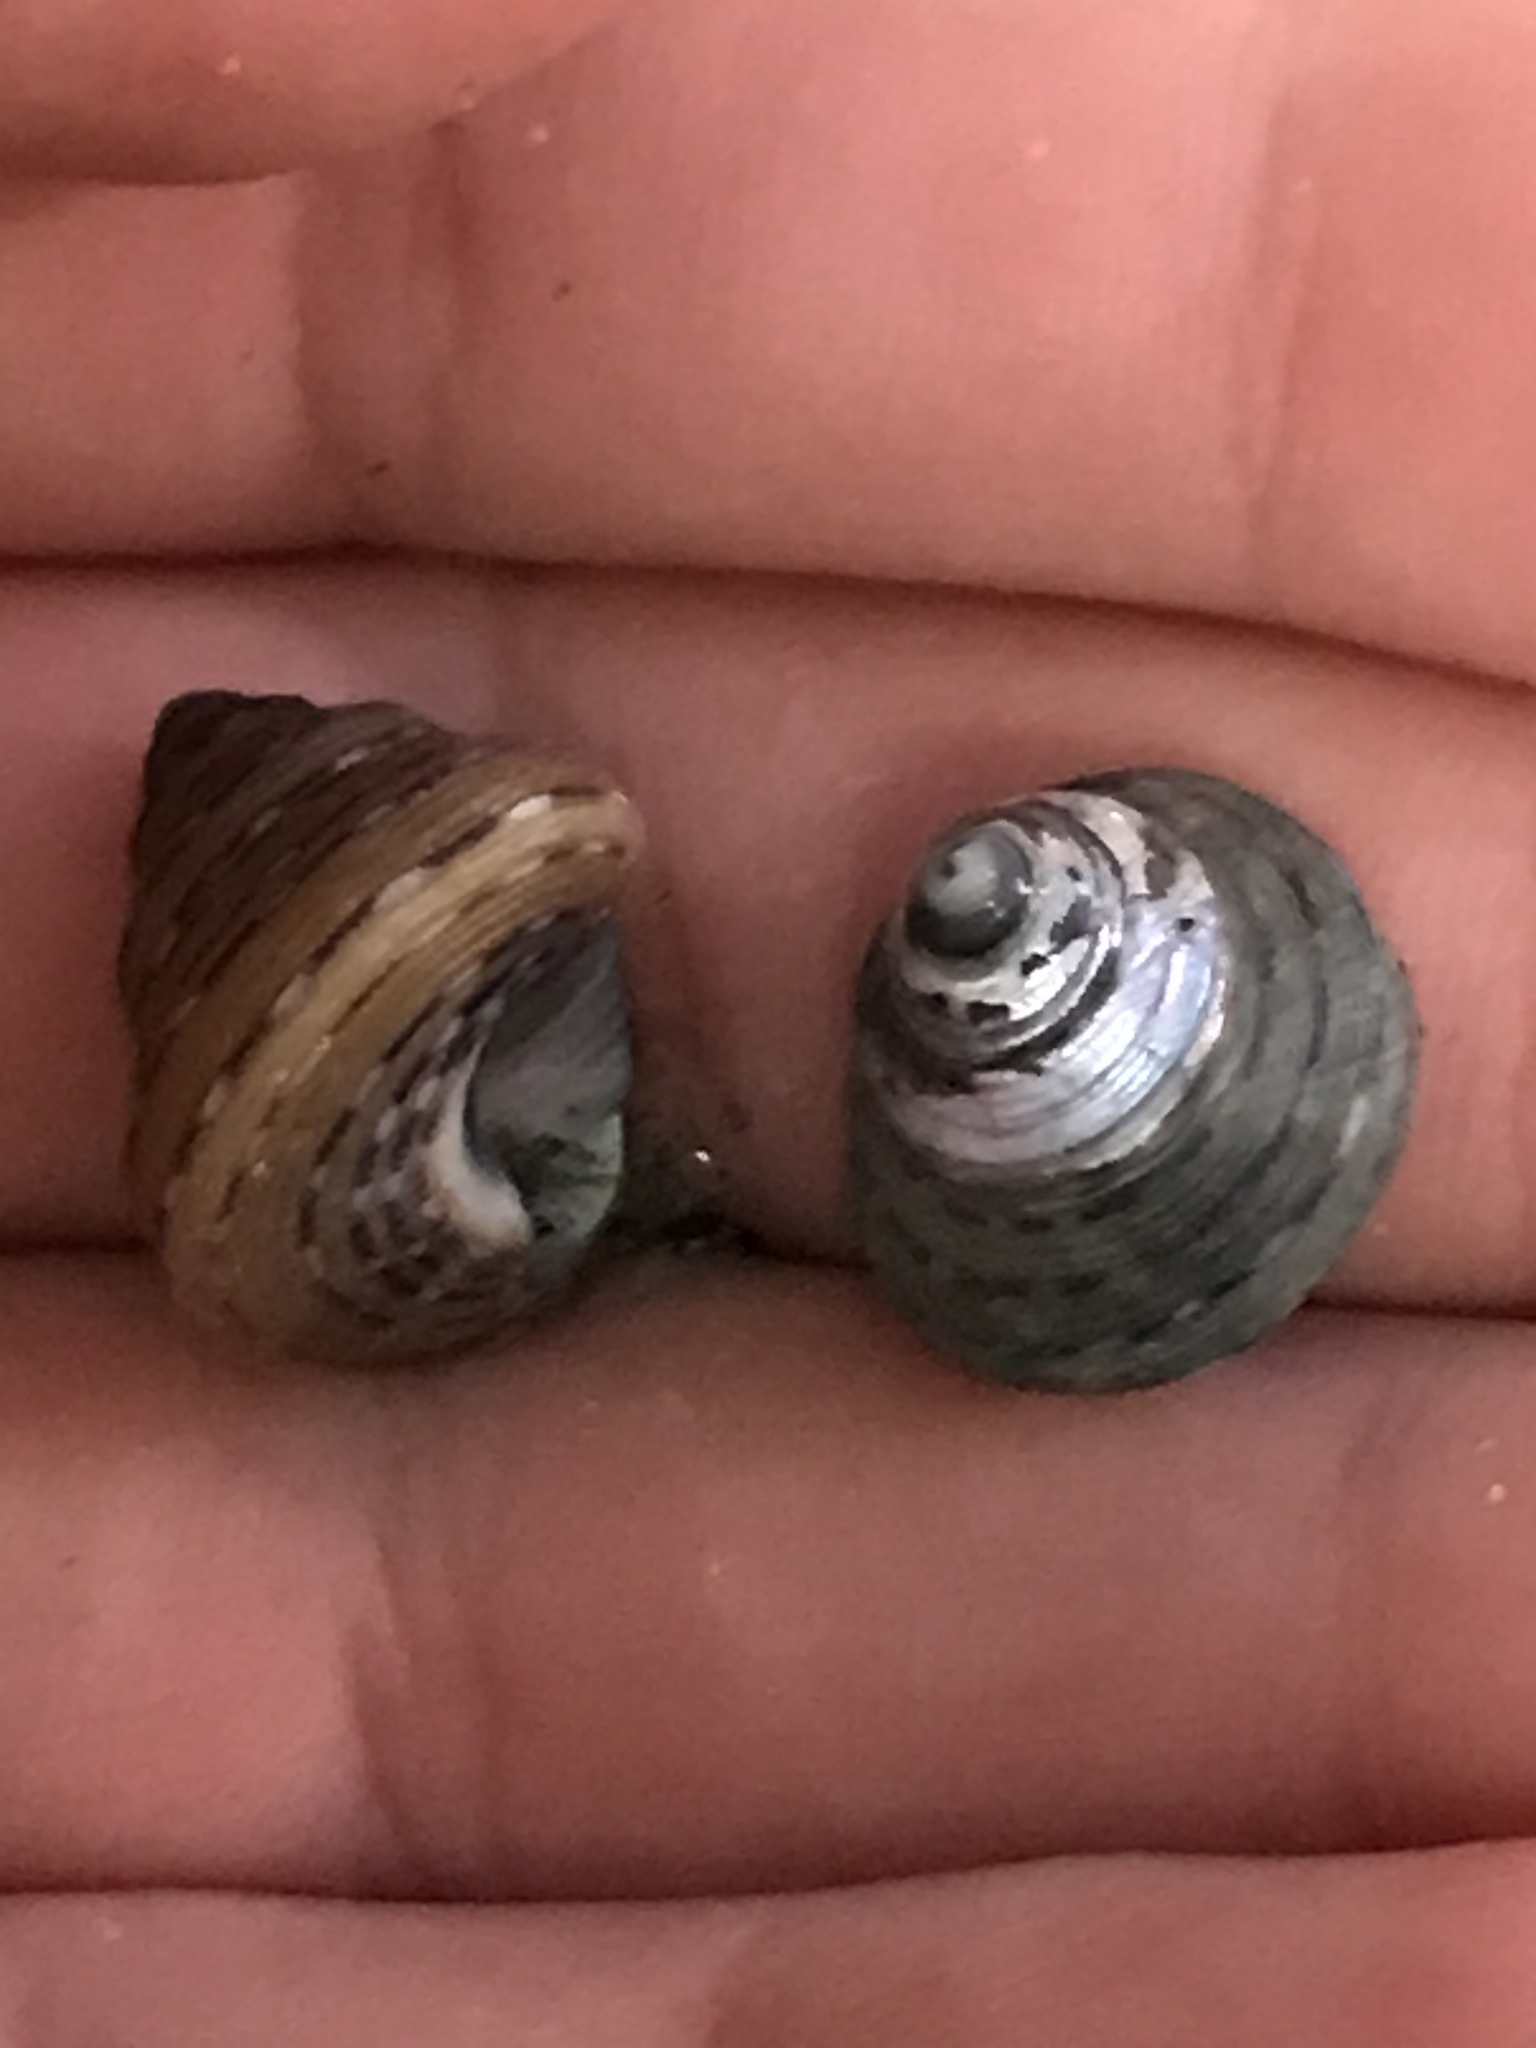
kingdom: Animalia
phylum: Mollusca
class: Gastropoda
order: Trochida
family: Calliostomatidae
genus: Calliostoma
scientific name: Calliostoma tricolor
